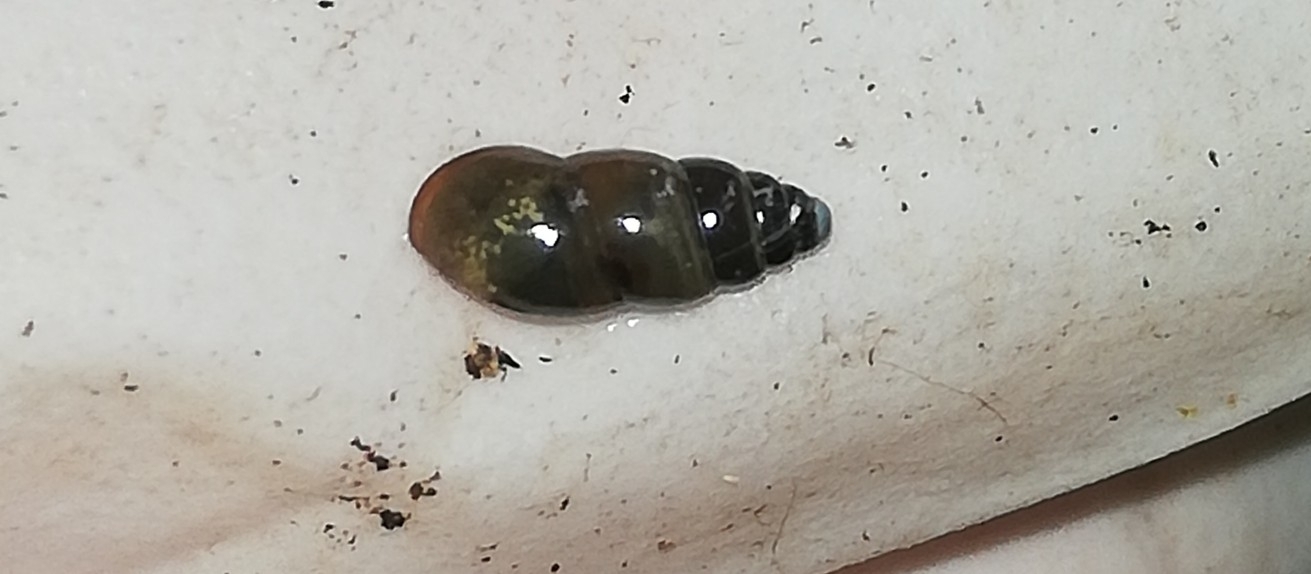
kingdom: Animalia
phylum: Mollusca
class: Gastropoda
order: Stylommatophora
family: Cochlicopidae
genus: Cochlicopa
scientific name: Cochlicopa lubrica
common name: Glossy pillar snail
